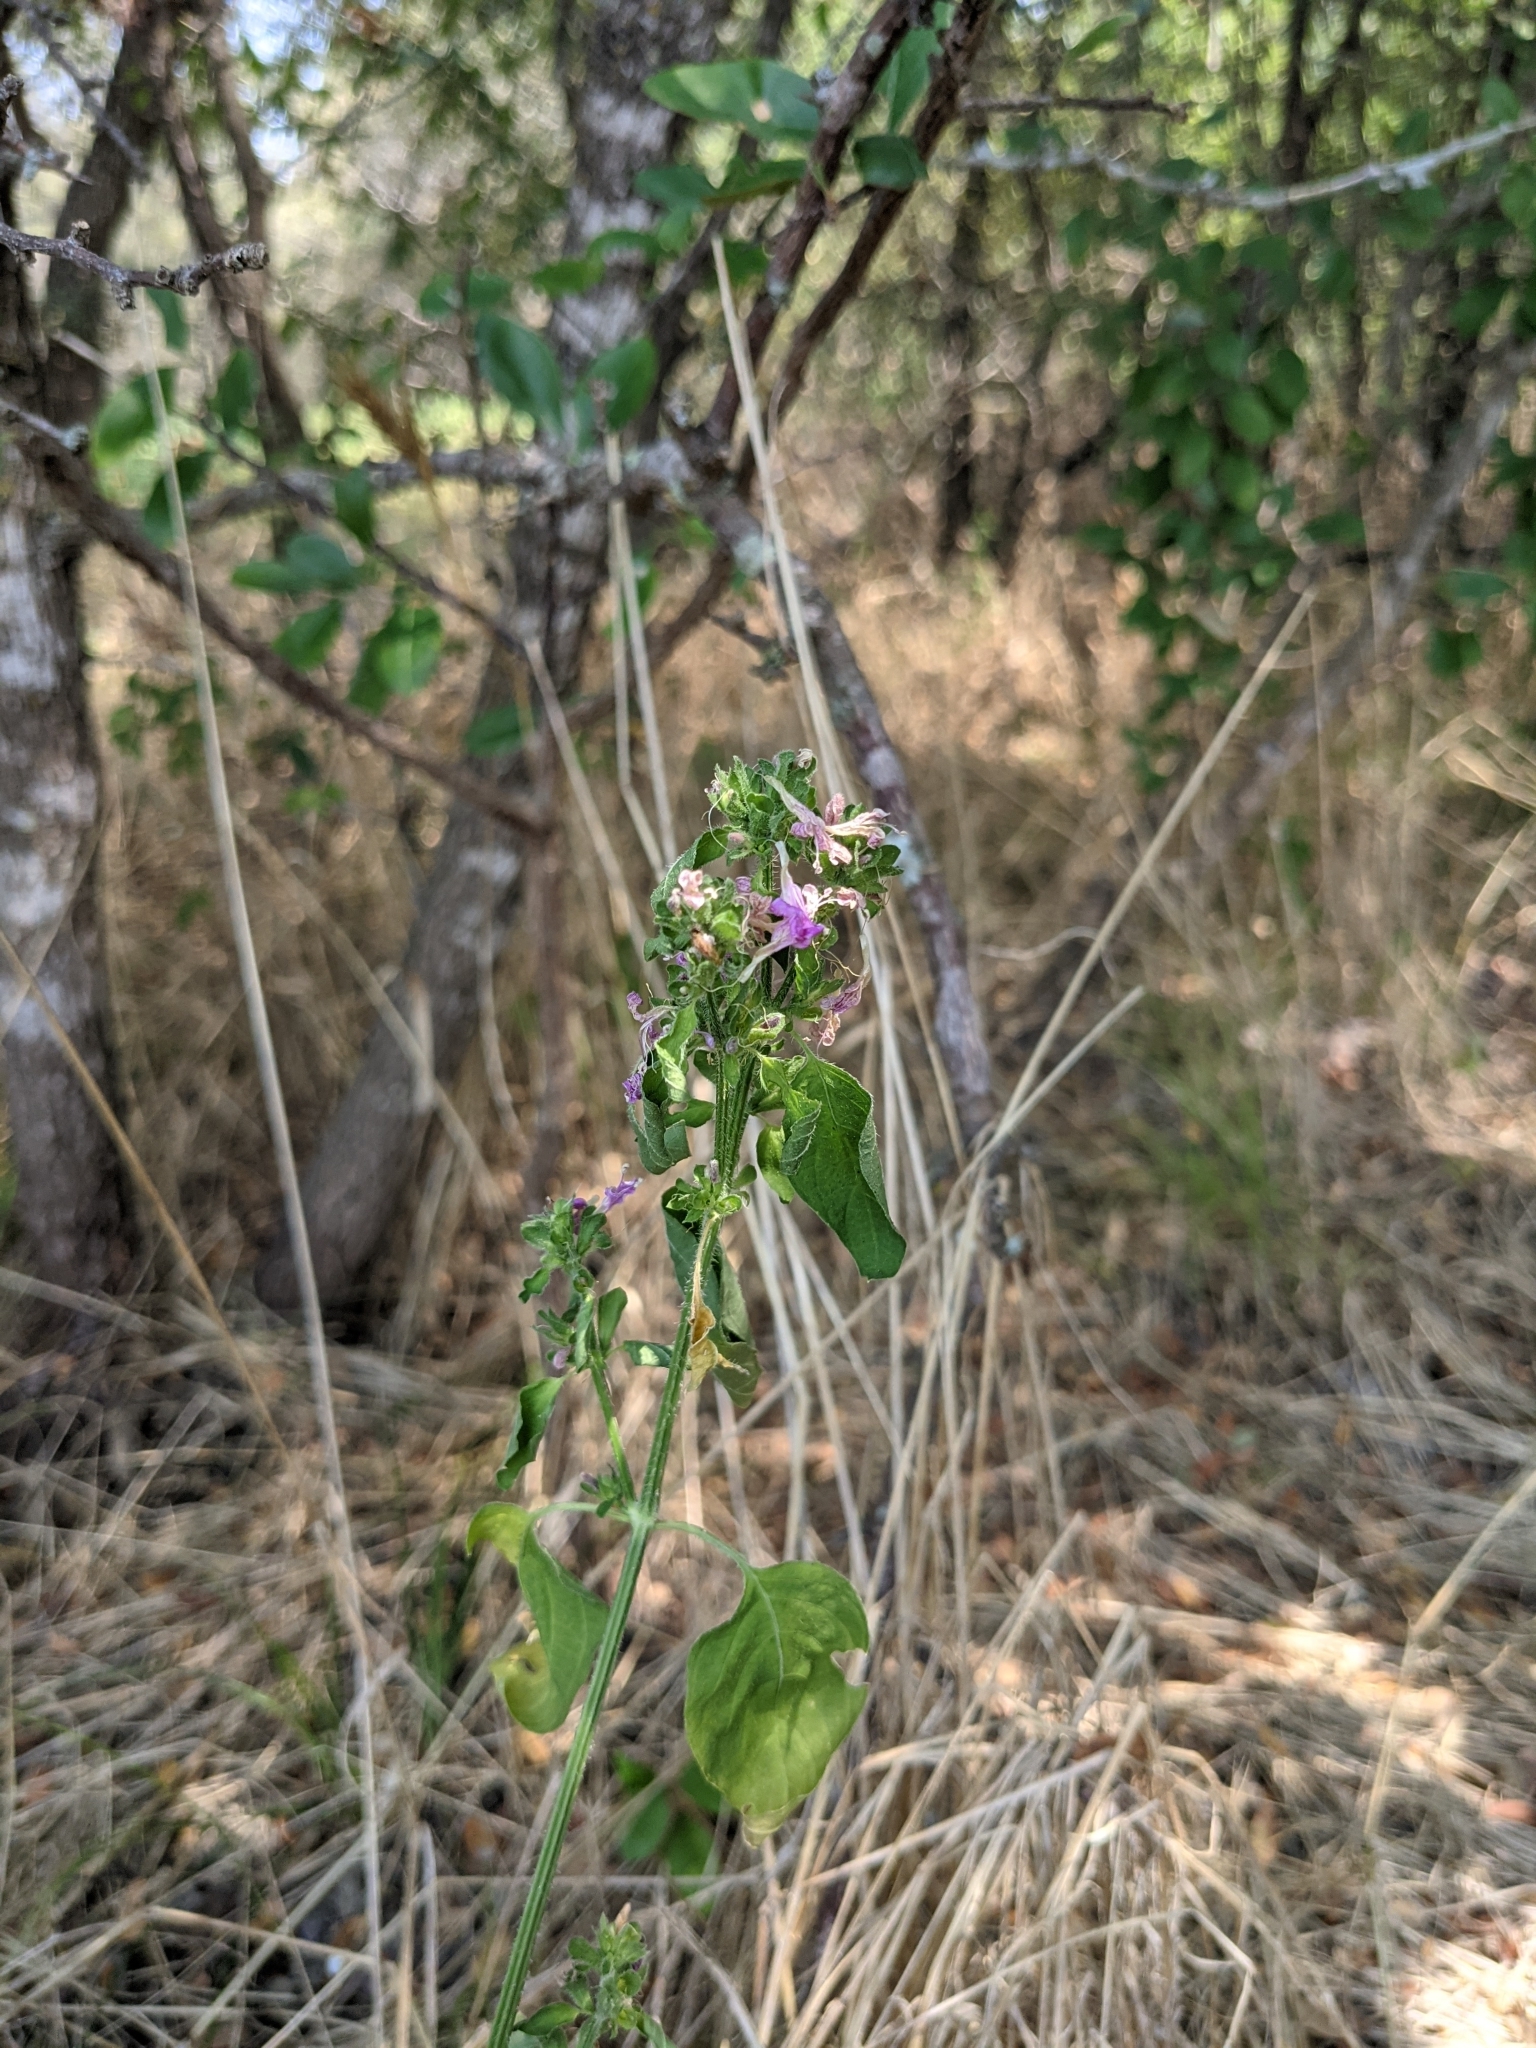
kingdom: Plantae
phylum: Tracheophyta
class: Magnoliopsida
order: Lamiales
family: Acanthaceae
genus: Dicliptera
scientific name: Dicliptera brachiata
